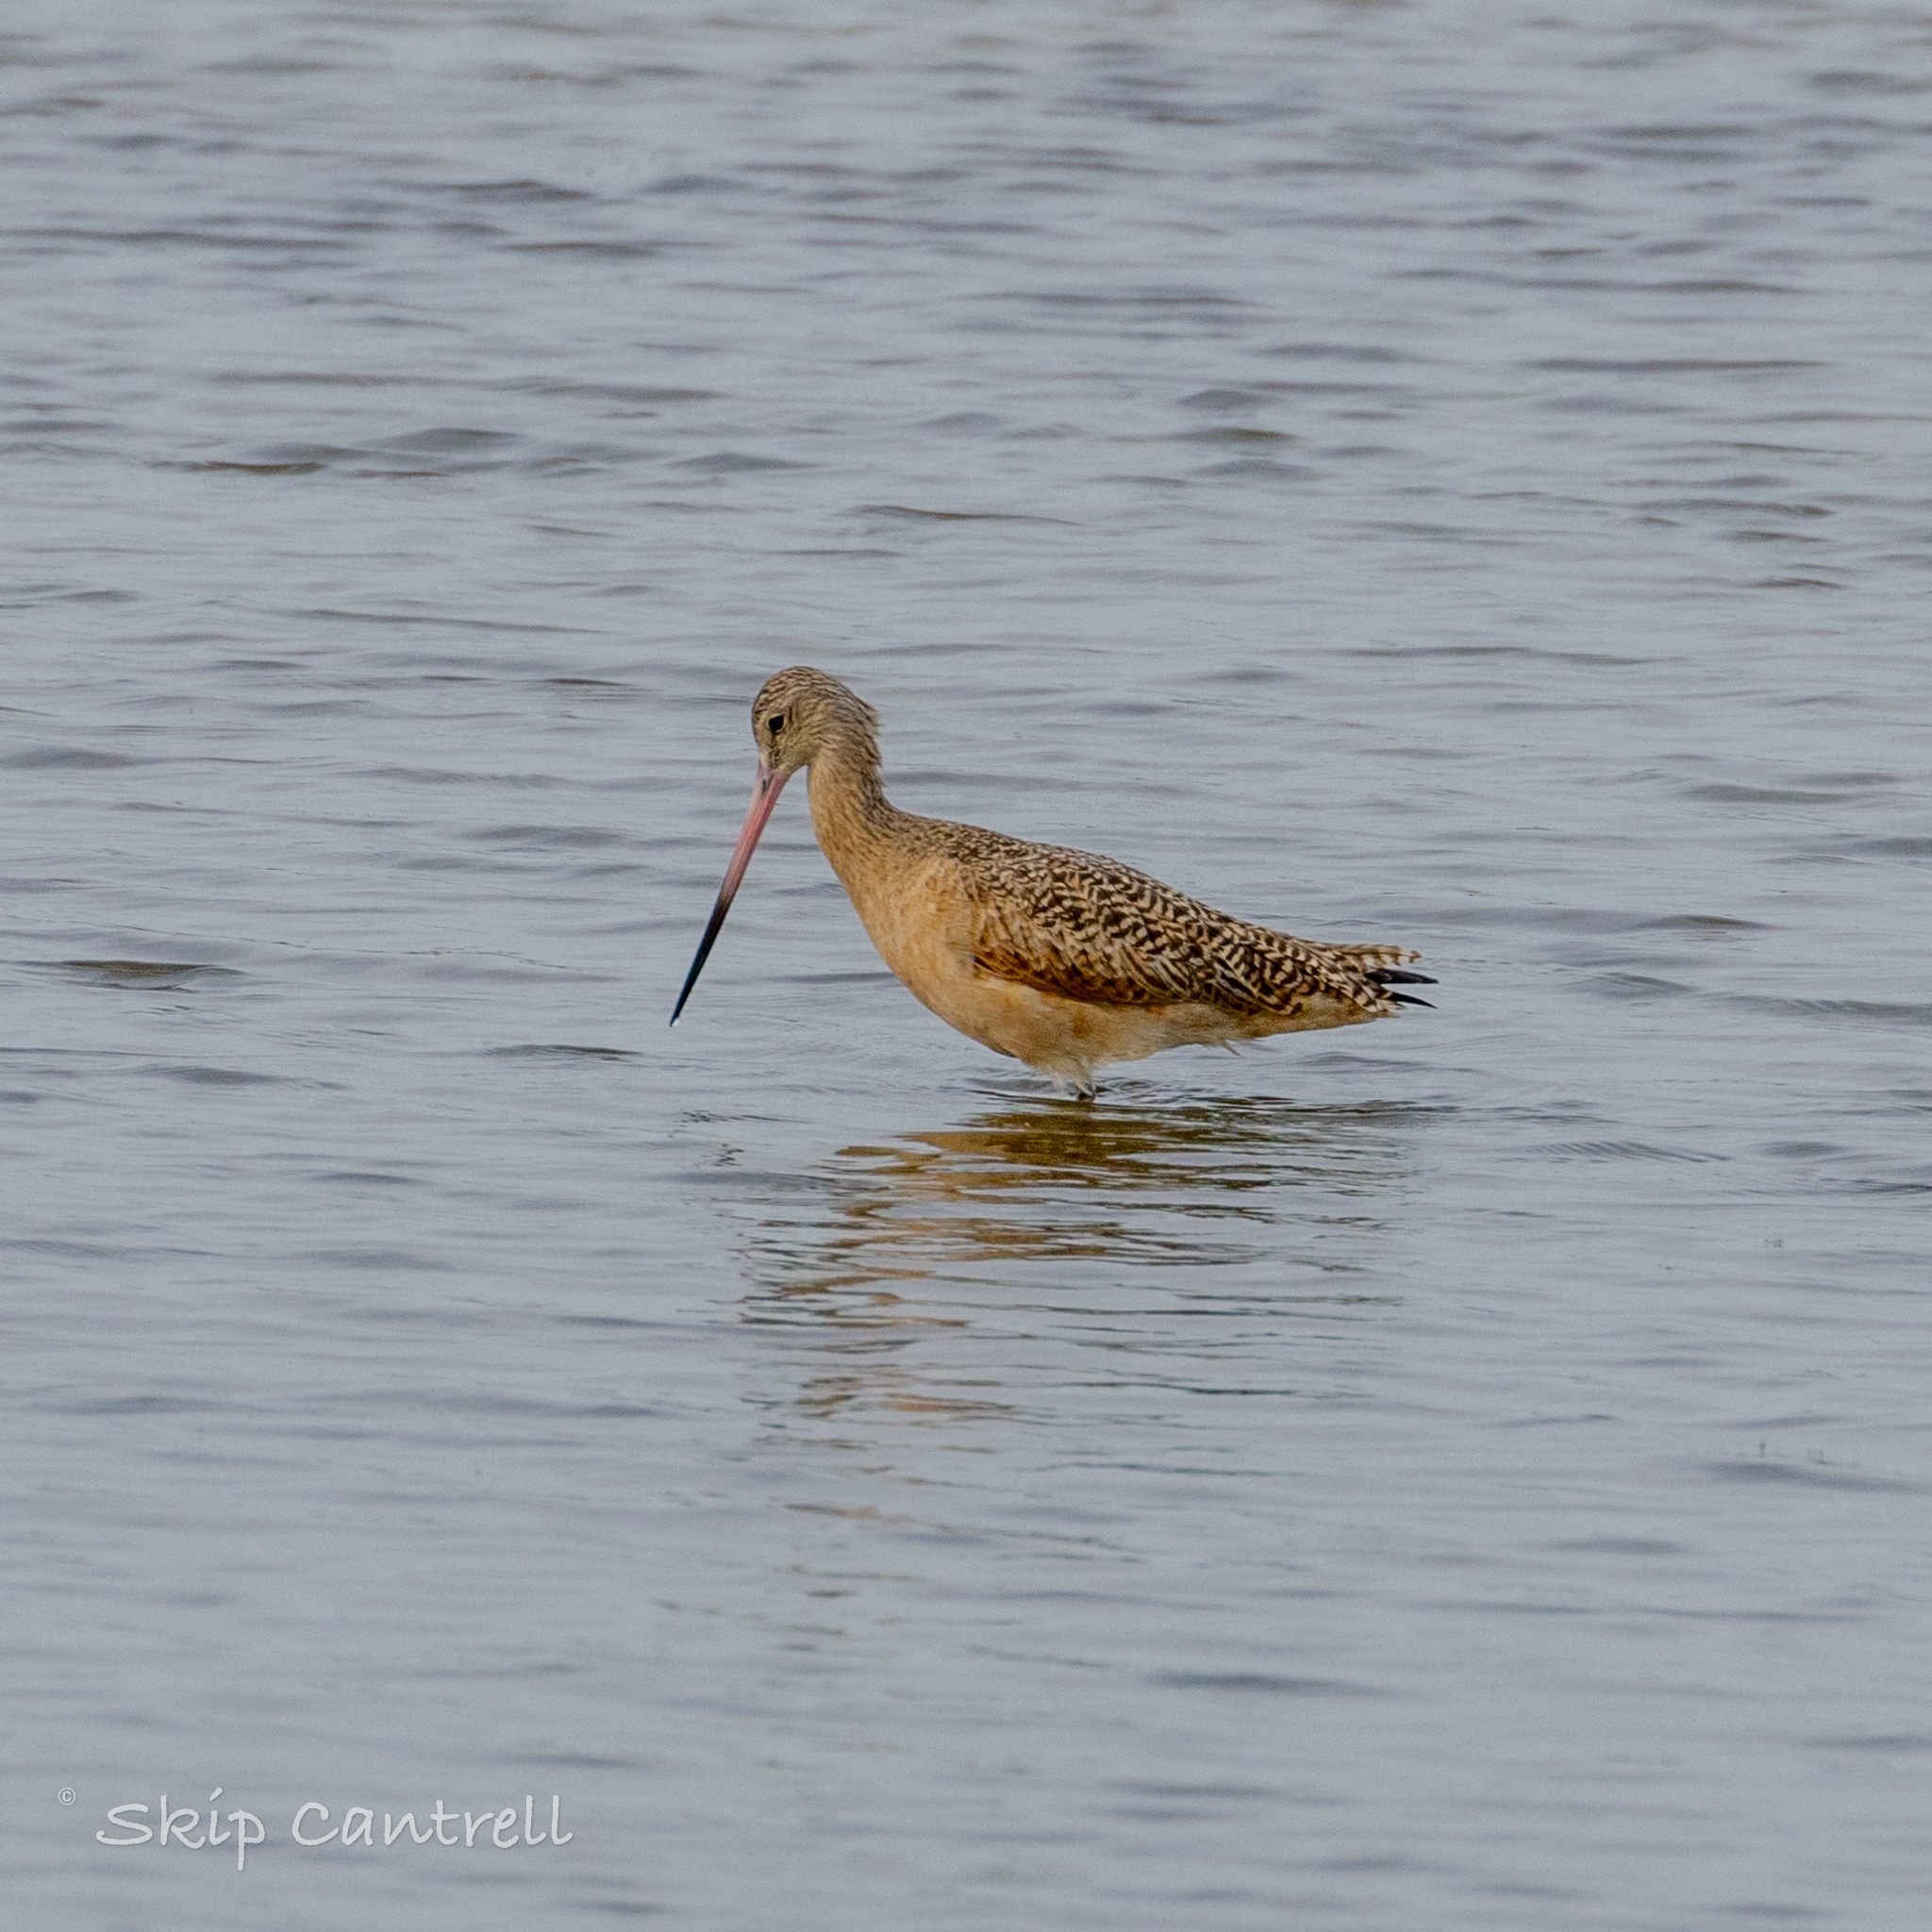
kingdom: Animalia
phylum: Chordata
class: Aves
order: Charadriiformes
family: Scolopacidae
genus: Limosa
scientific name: Limosa fedoa
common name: Marbled godwit
